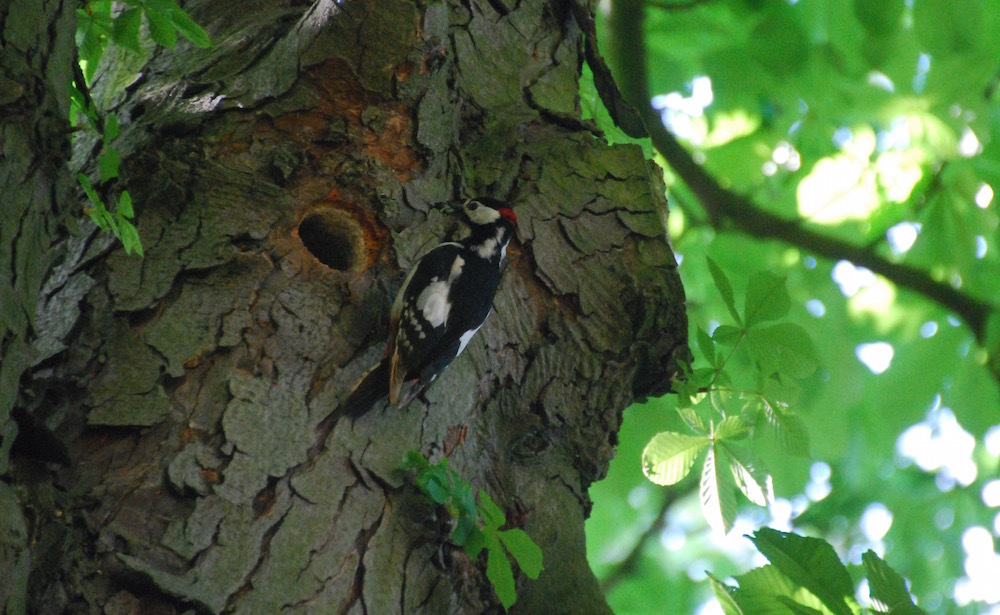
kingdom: Animalia
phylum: Chordata
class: Aves
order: Piciformes
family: Picidae
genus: Dendrocopos
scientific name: Dendrocopos major
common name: Great spotted woodpecker
